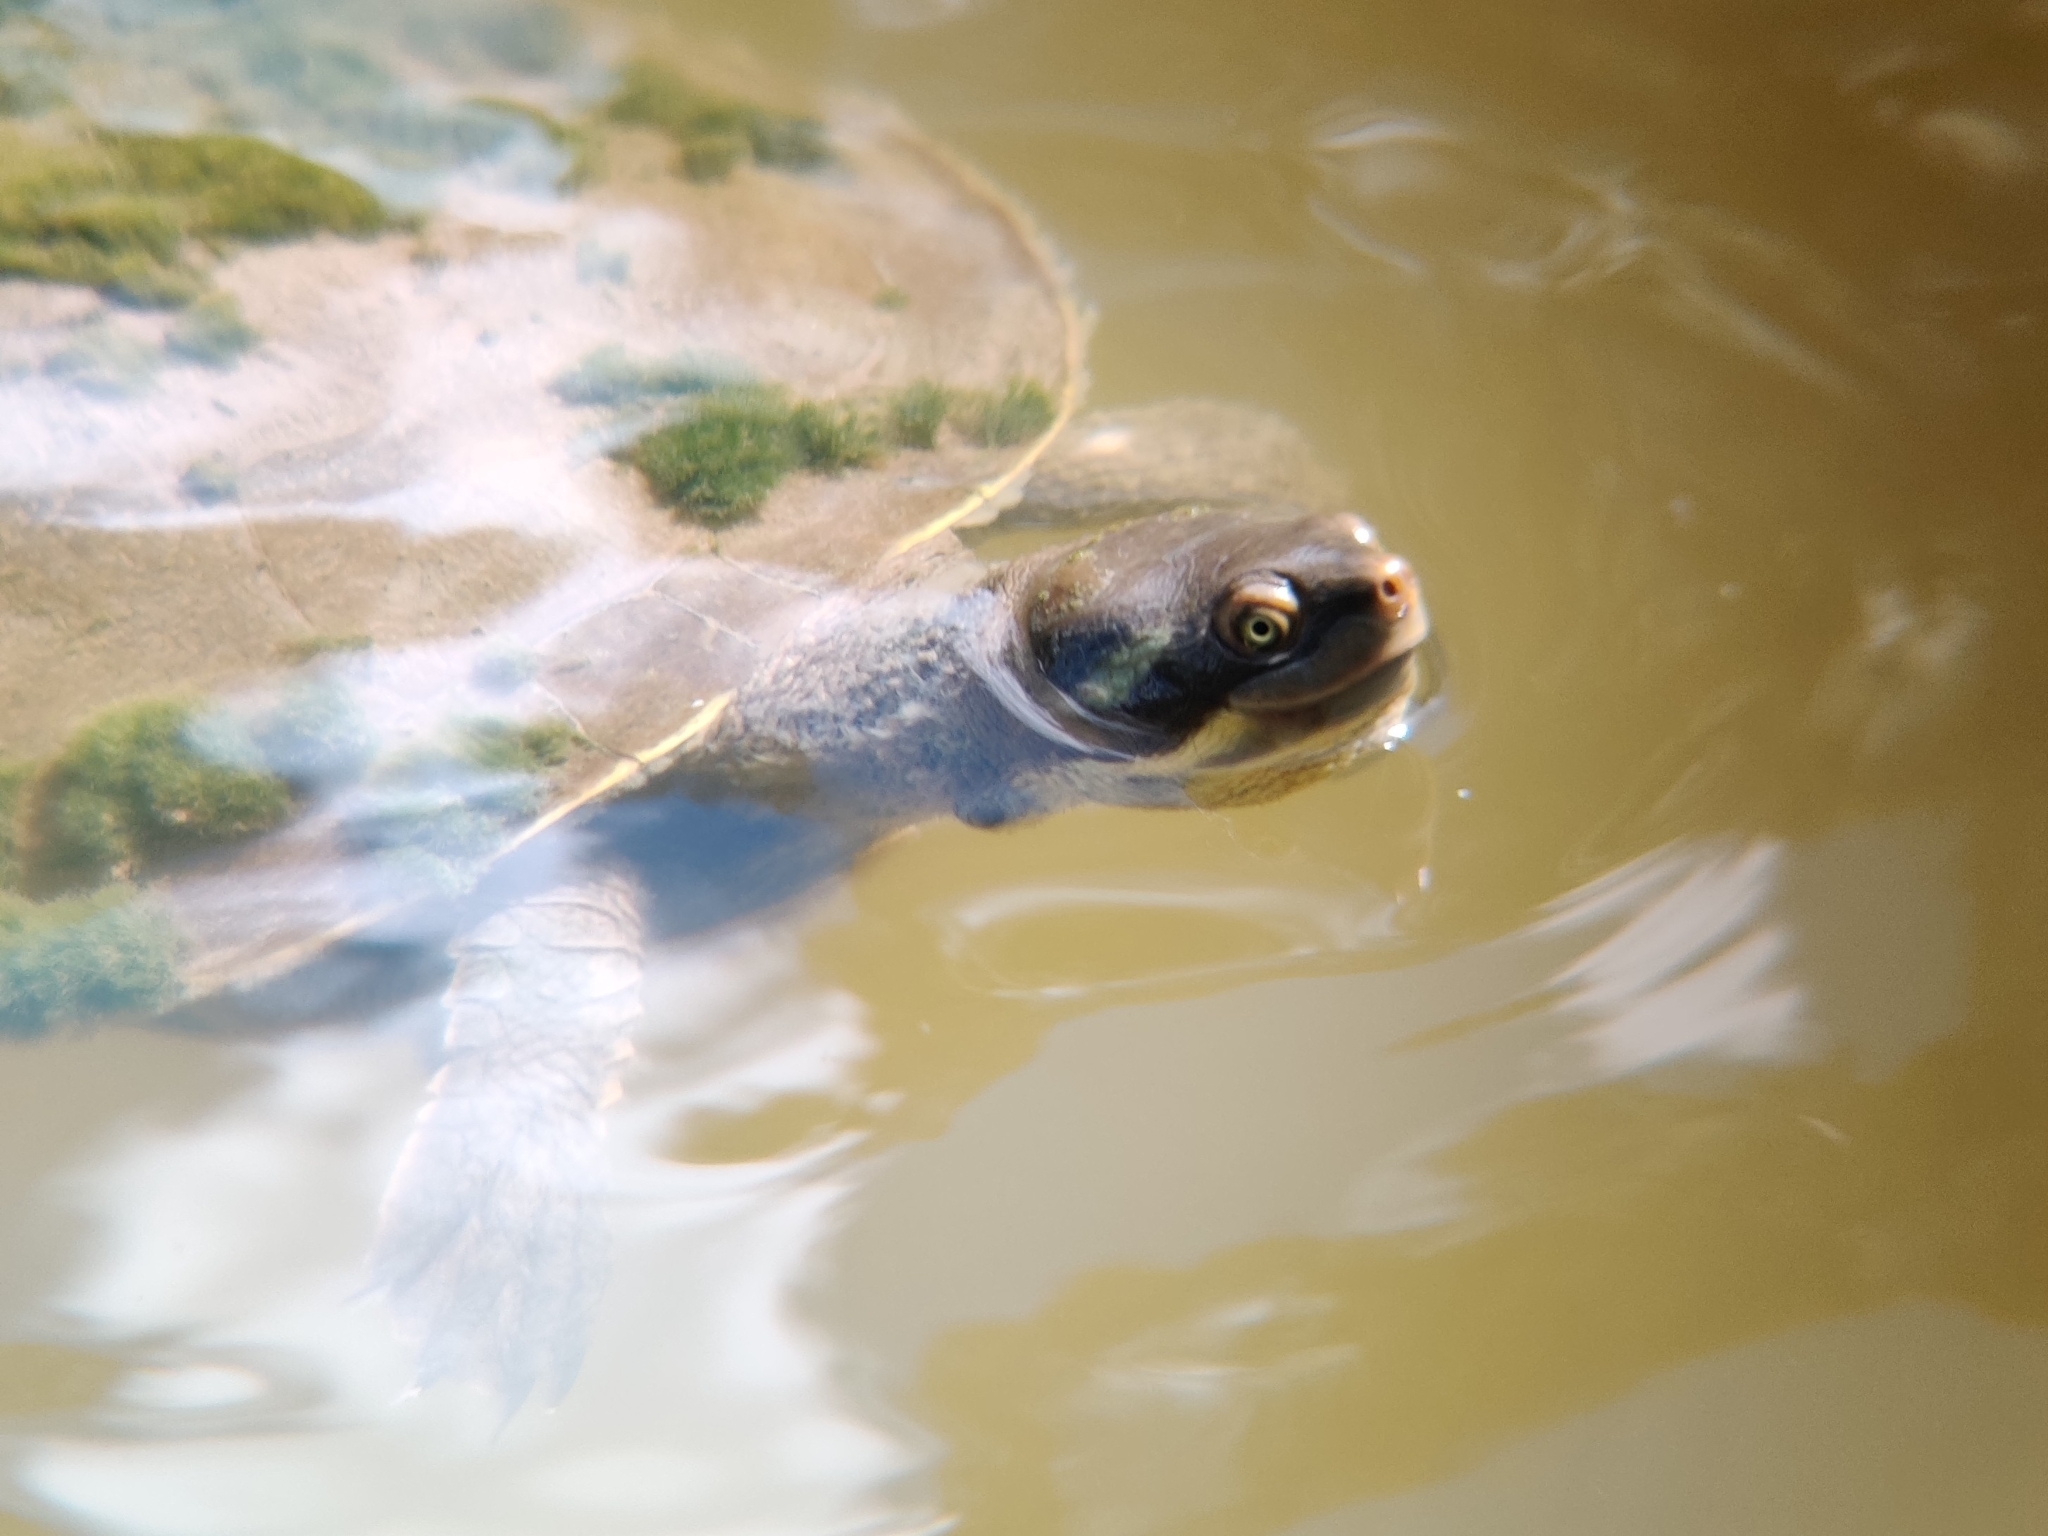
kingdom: Animalia
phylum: Chordata
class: Testudines
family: Chelidae
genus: Emydura
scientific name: Emydura macquarii
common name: Murray river turtle
